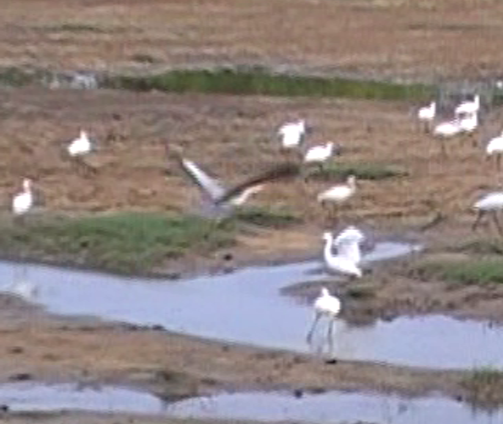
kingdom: Animalia
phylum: Chordata
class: Aves
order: Pelecaniformes
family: Ardeidae
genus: Ardea
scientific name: Ardea cinerea
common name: Grey heron
